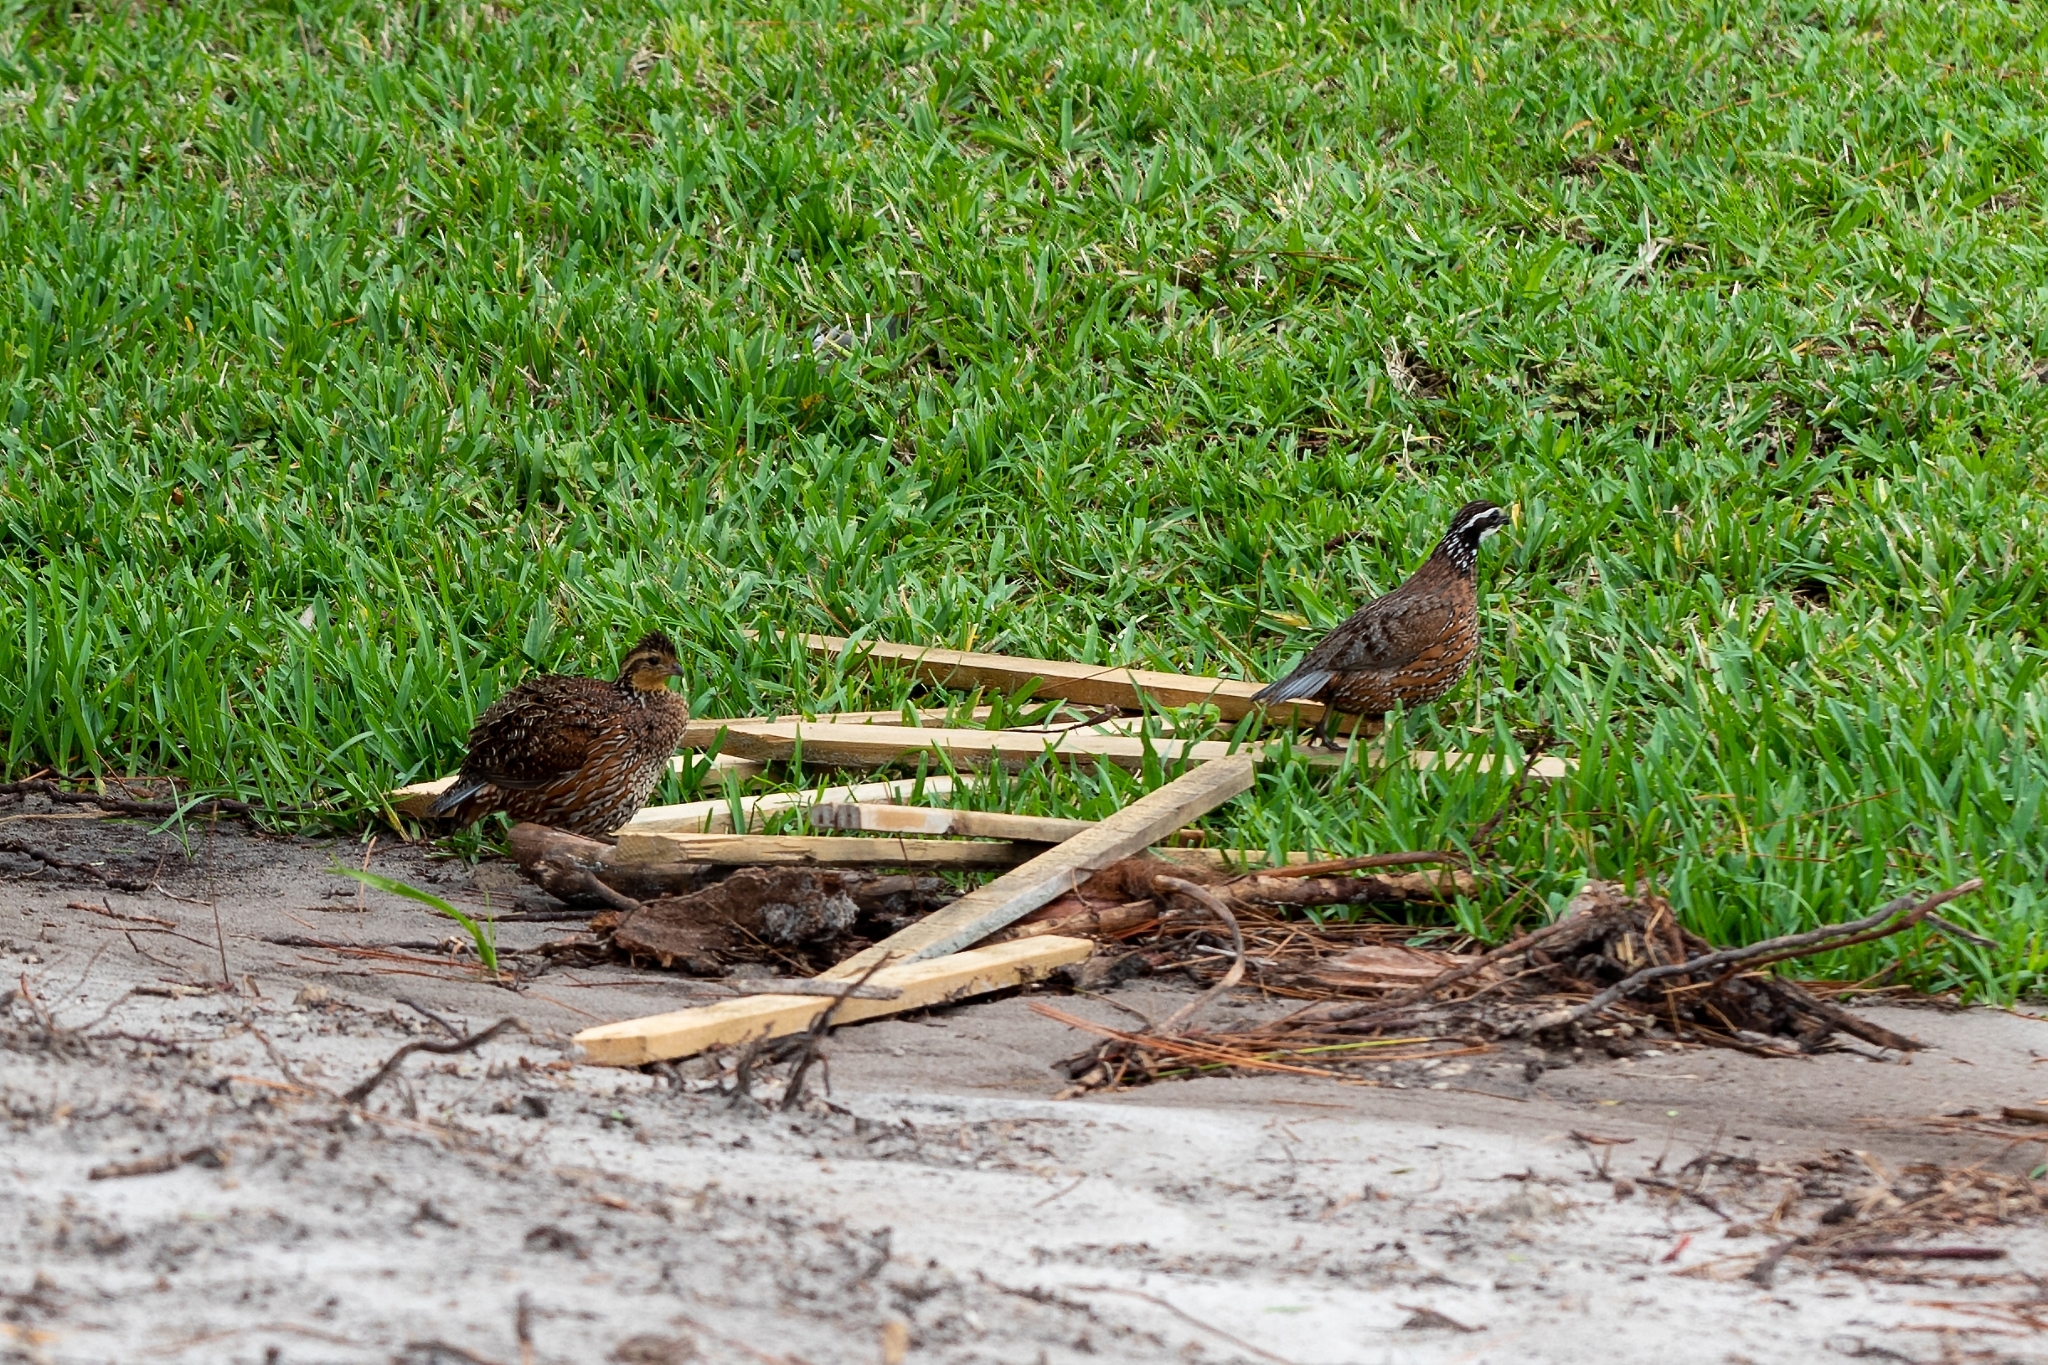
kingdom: Animalia
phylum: Chordata
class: Aves
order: Galliformes
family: Odontophoridae
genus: Colinus
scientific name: Colinus virginianus
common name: Northern bobwhite
